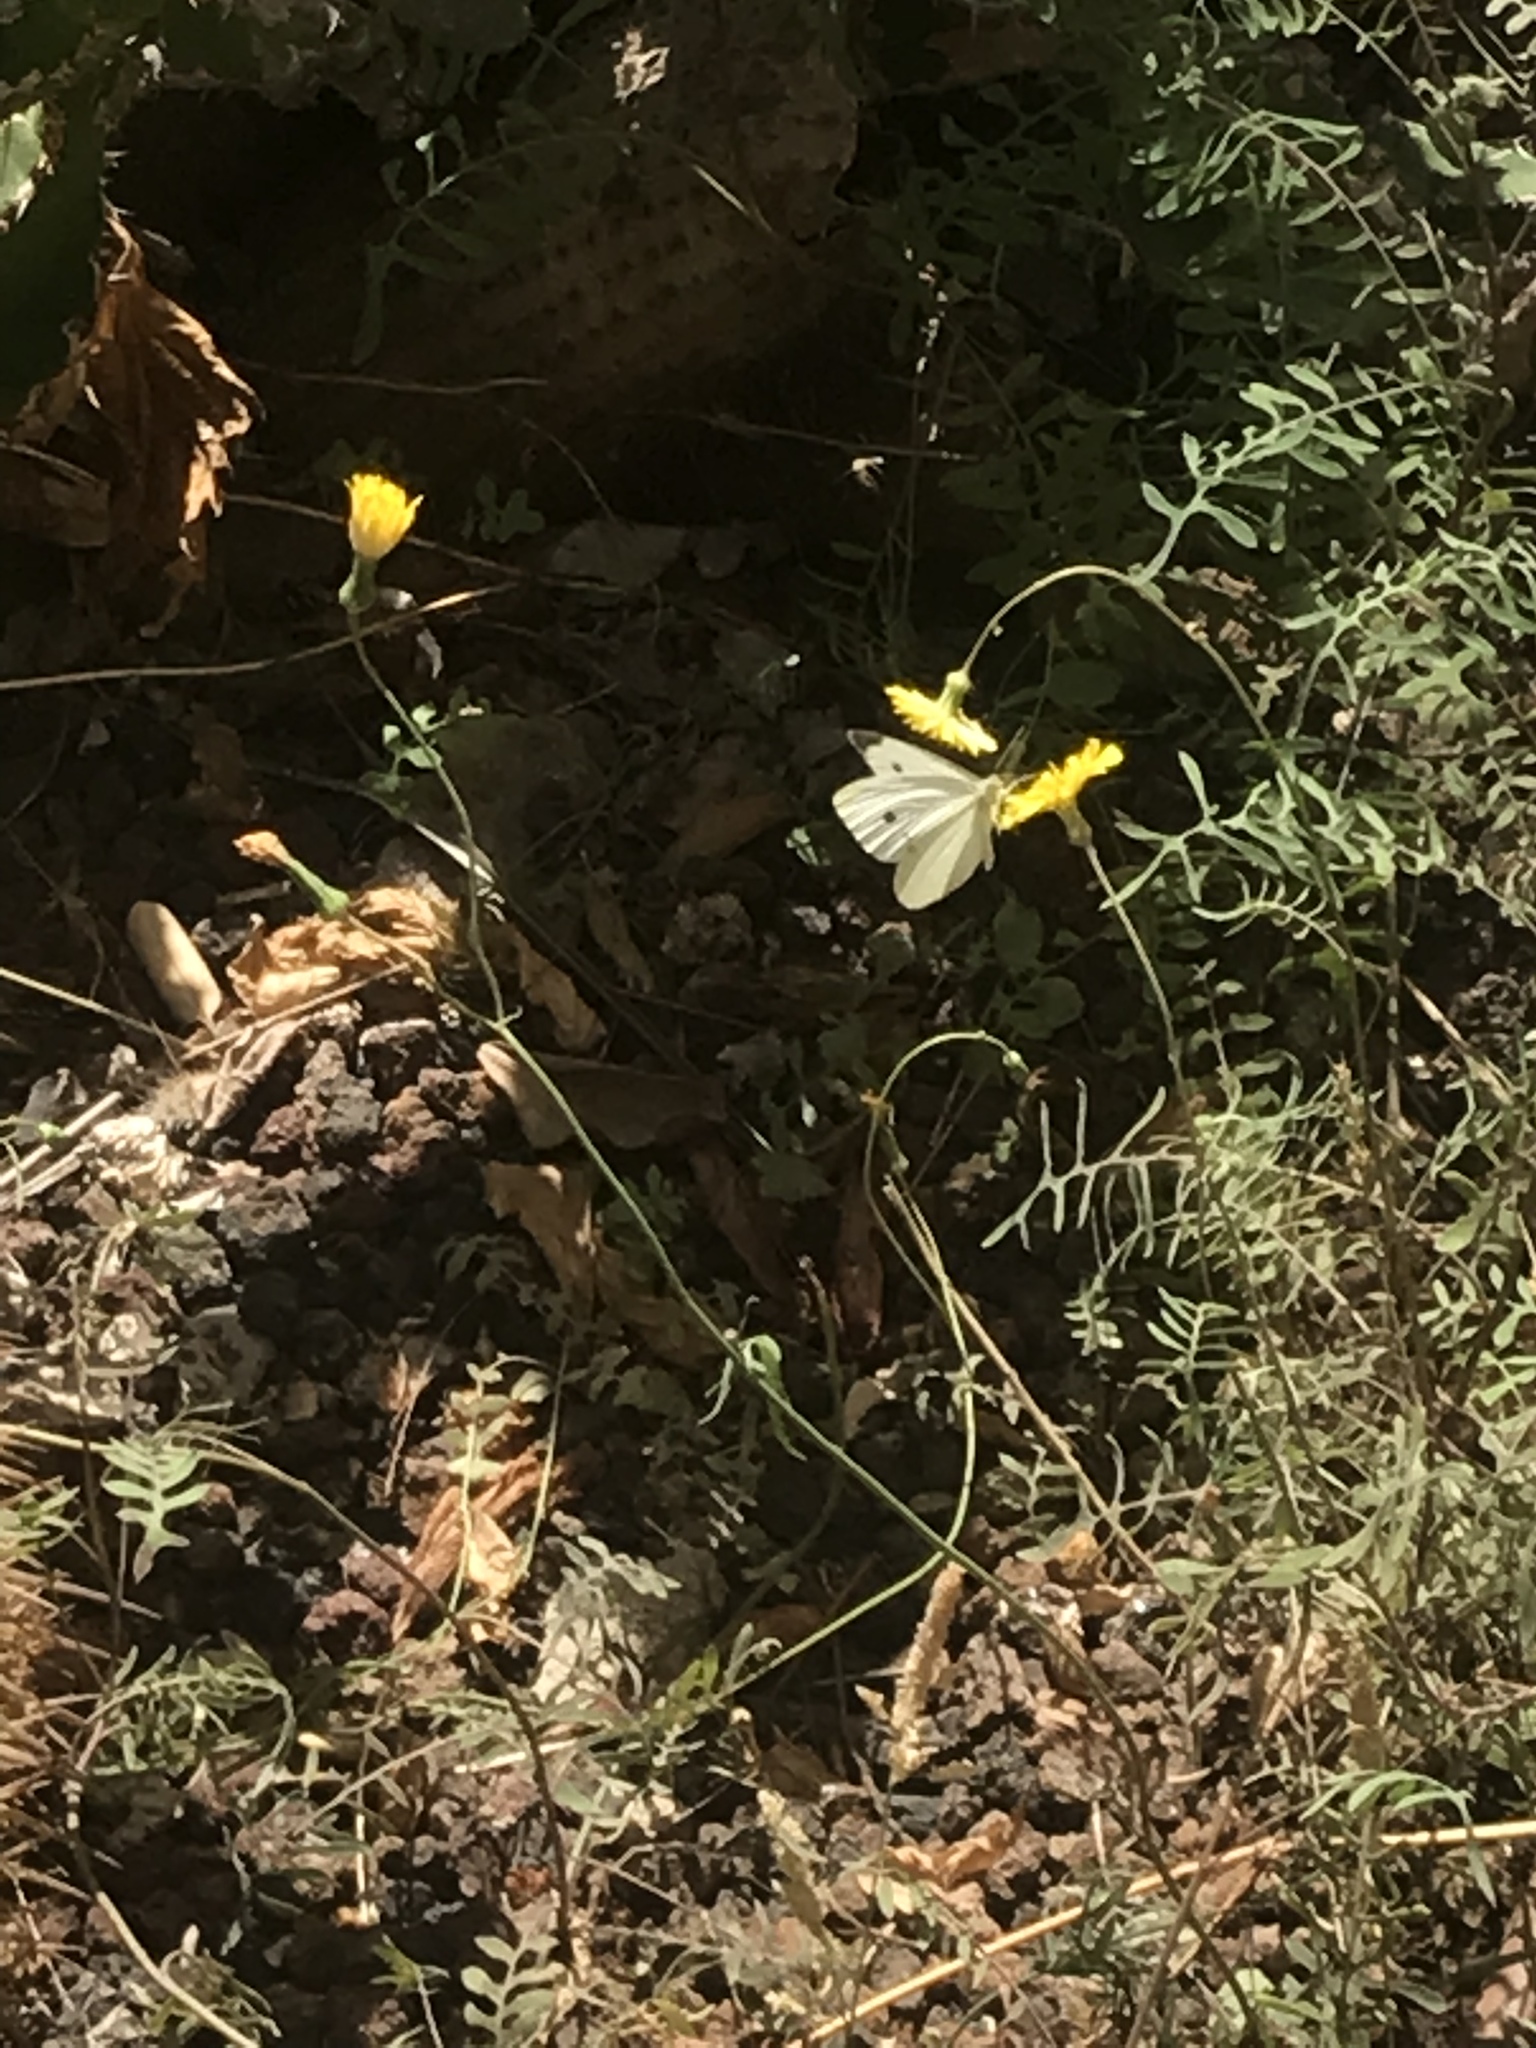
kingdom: Animalia
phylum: Arthropoda
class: Insecta
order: Lepidoptera
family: Pieridae
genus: Pieris
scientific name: Pieris rapae
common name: Small white
